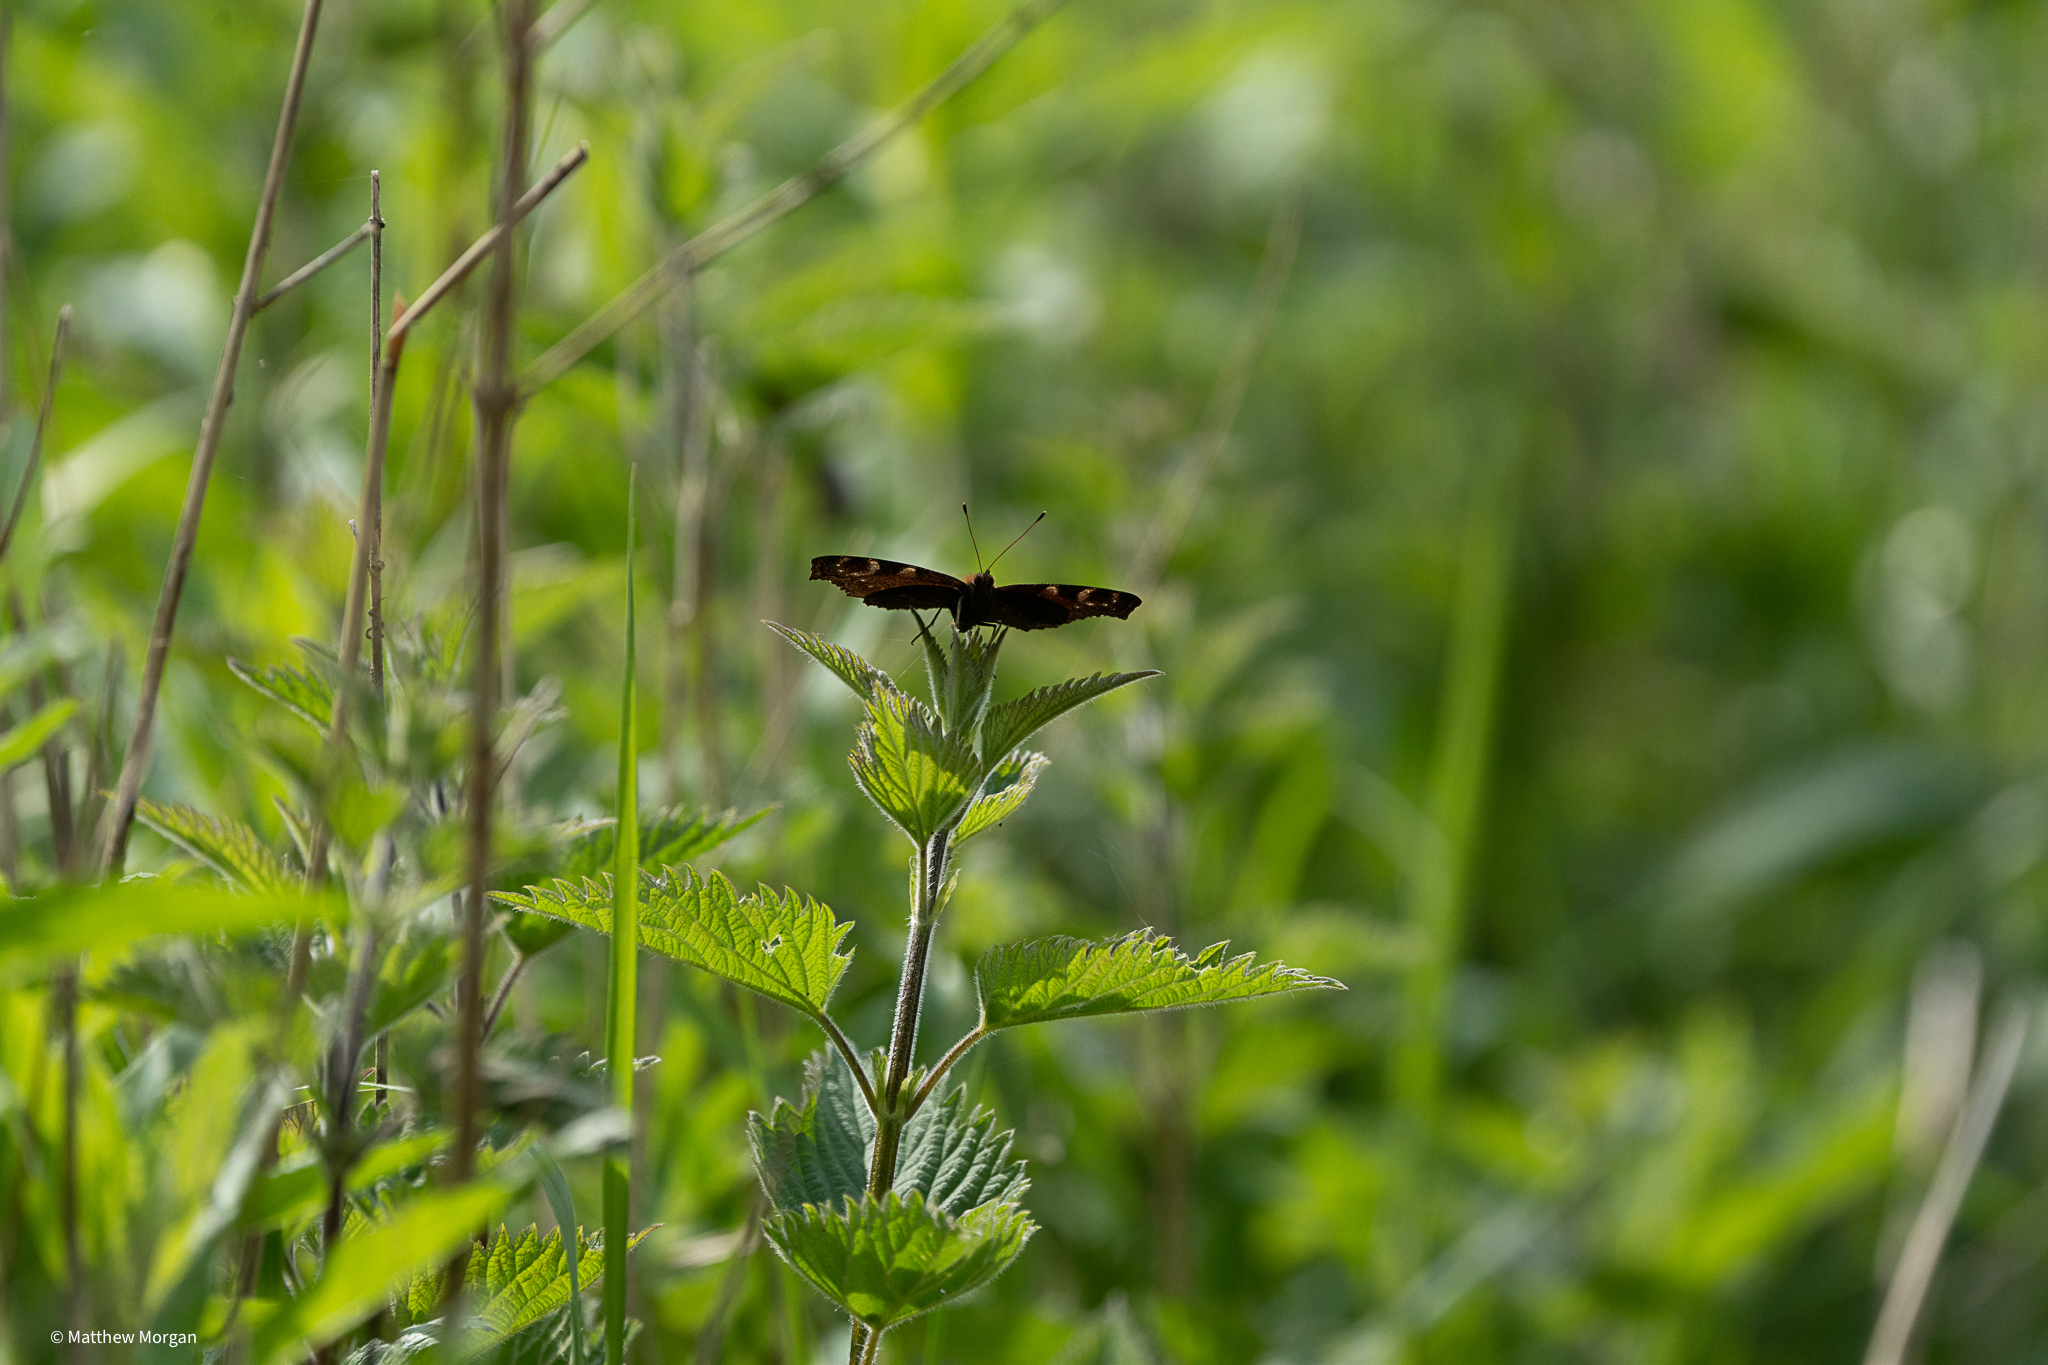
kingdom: Animalia
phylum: Arthropoda
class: Insecta
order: Lepidoptera
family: Nymphalidae
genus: Aglais
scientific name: Aglais io
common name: Peacock
